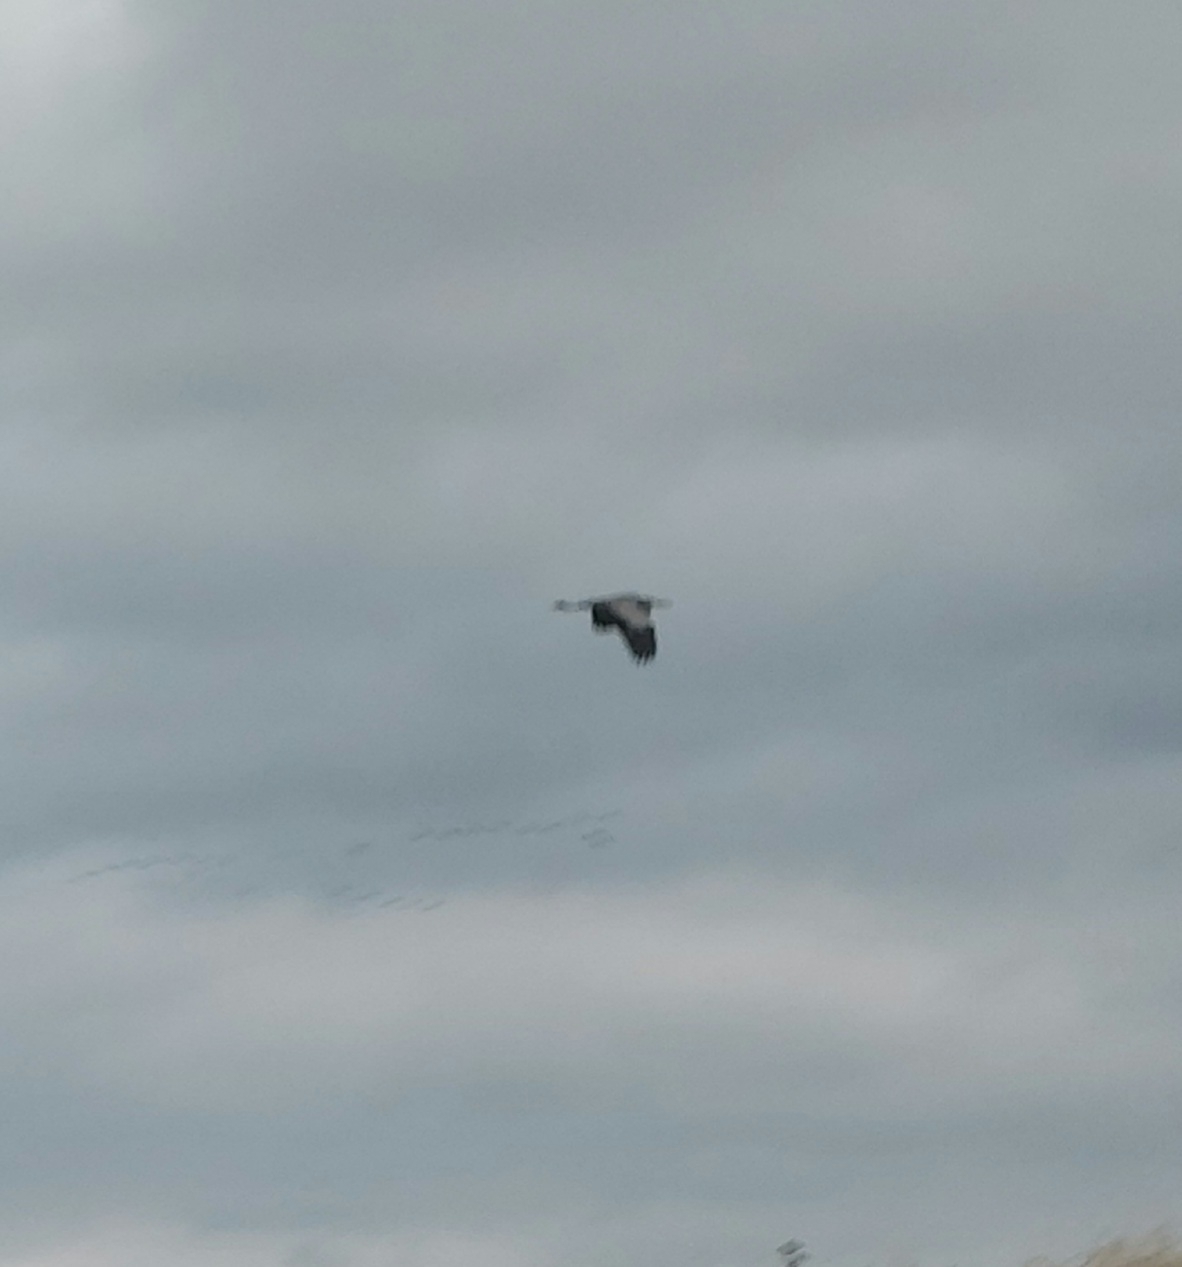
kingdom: Animalia
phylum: Chordata
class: Aves
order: Pelecaniformes
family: Ardeidae
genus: Ardea
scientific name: Ardea cinerea
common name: Grey heron
